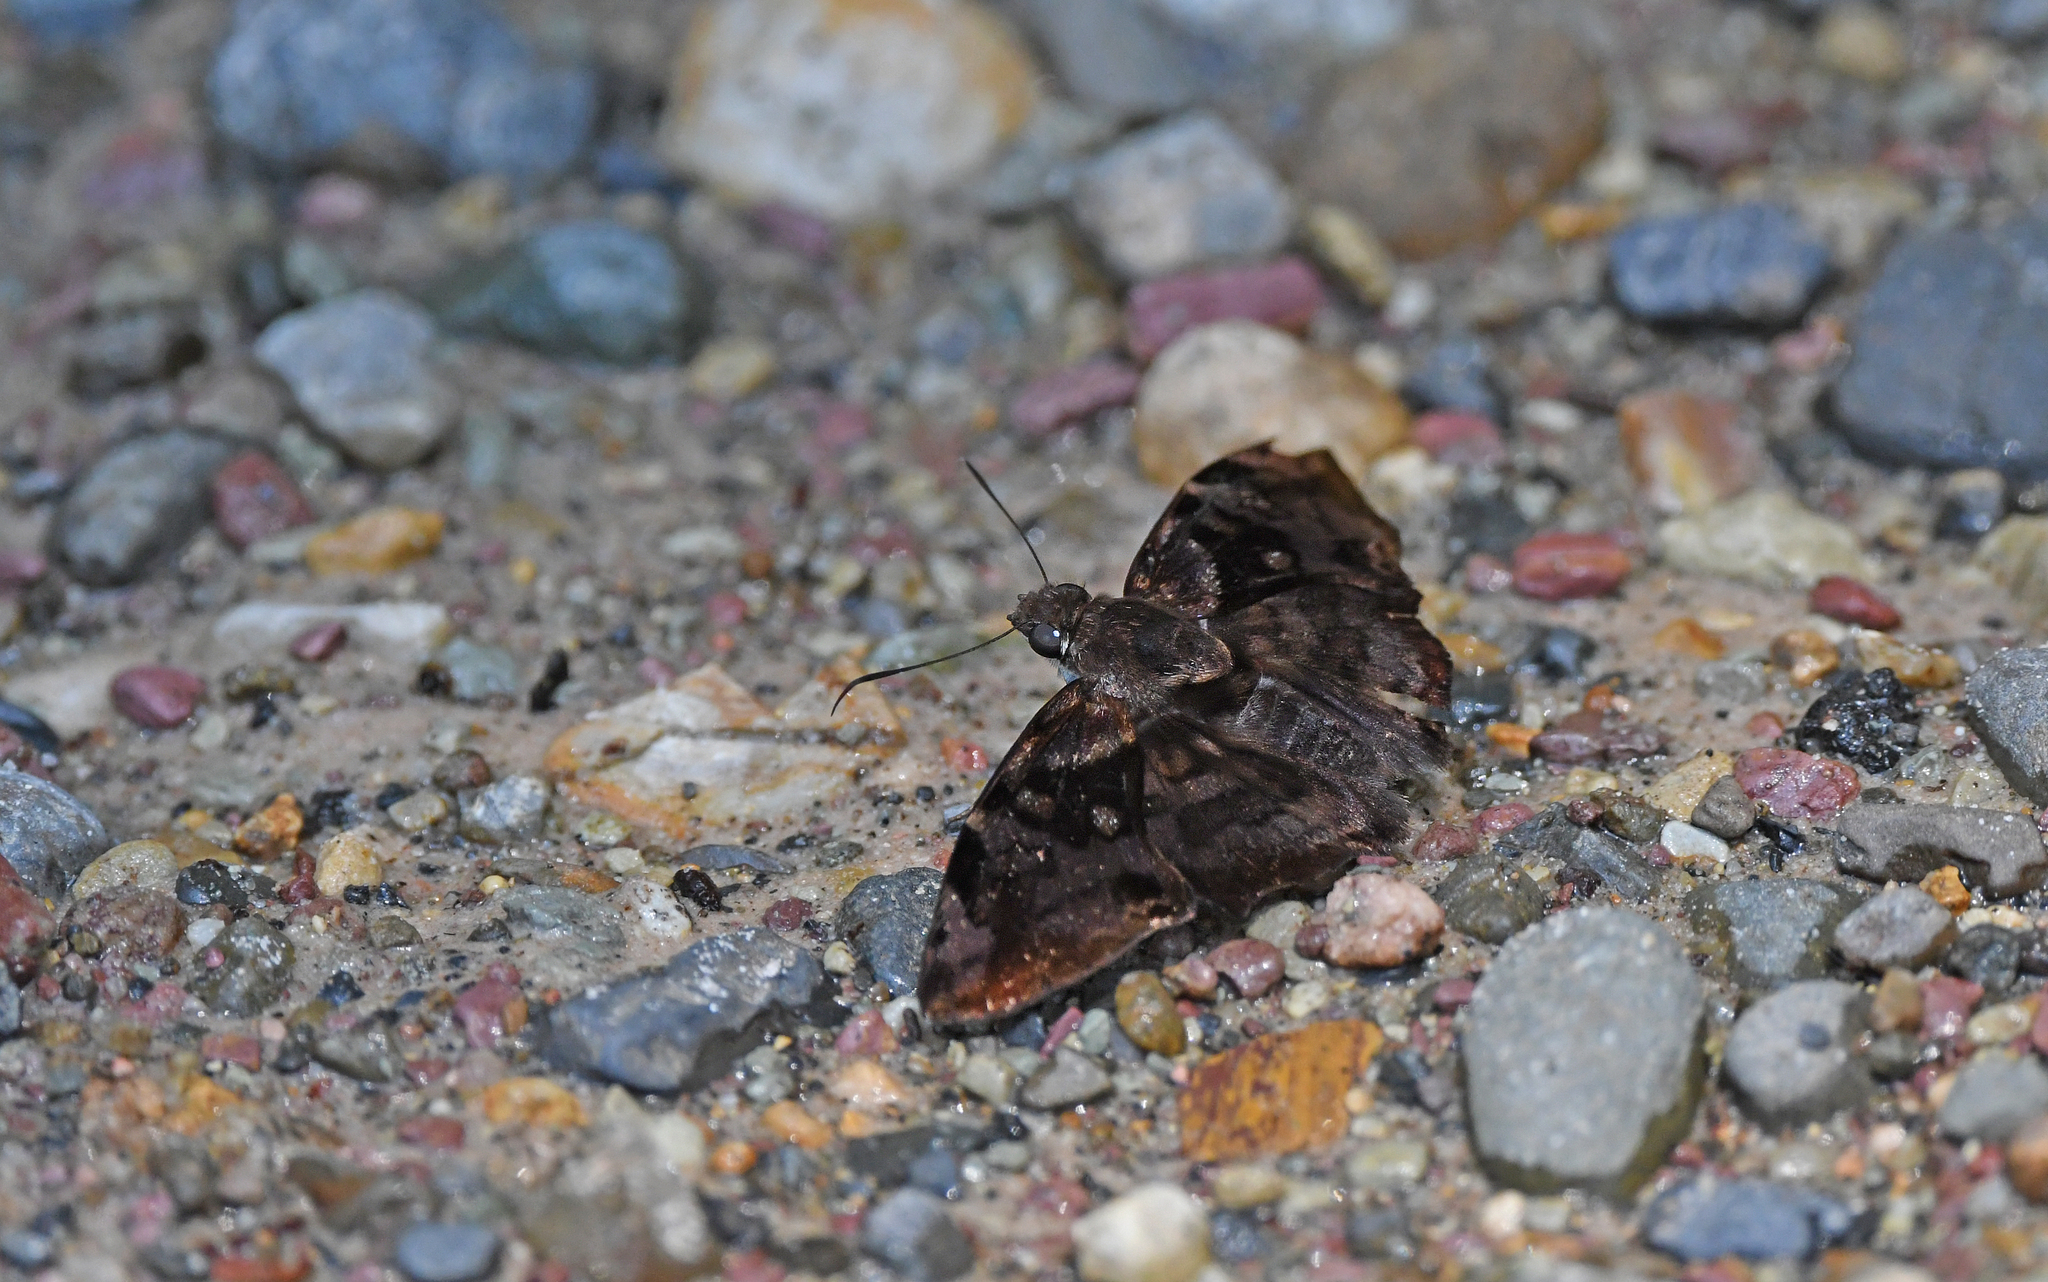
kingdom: Animalia
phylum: Arthropoda
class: Insecta
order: Lepidoptera
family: Hesperiidae
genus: Antigonus
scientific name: Antigonus nearchus
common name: Death-mask spurwing
